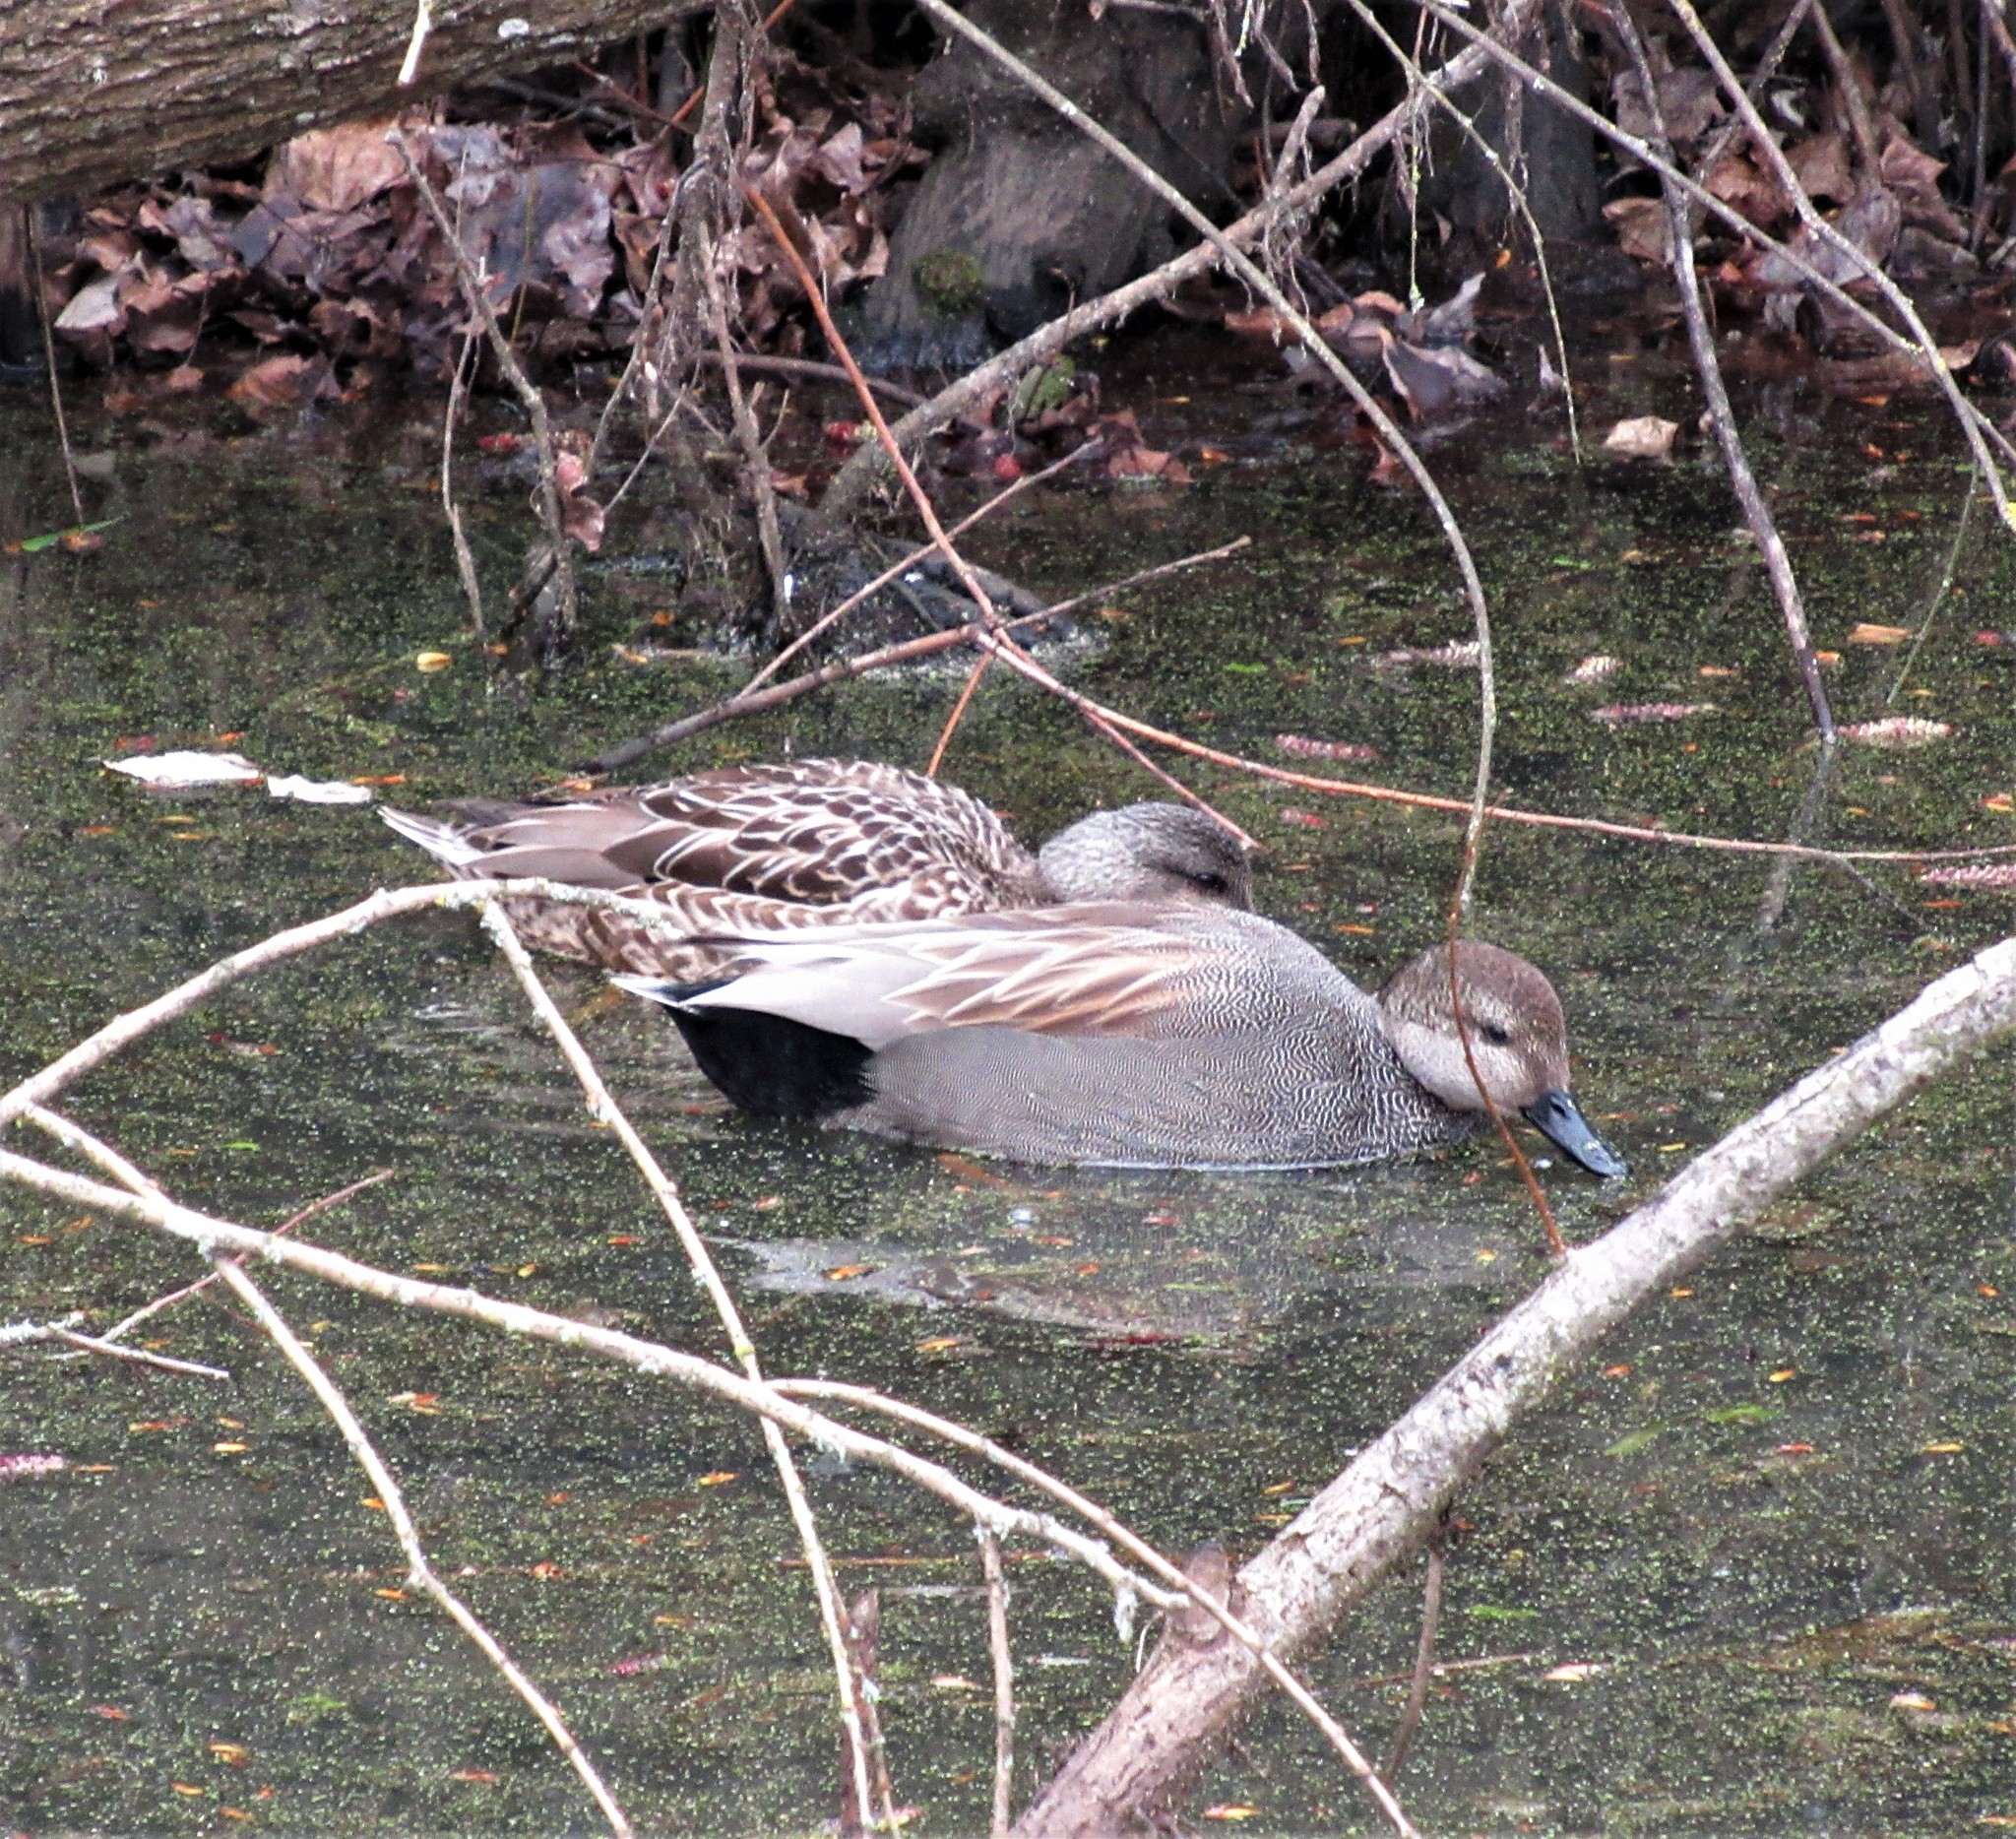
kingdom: Animalia
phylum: Chordata
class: Aves
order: Anseriformes
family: Anatidae
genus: Mareca
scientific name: Mareca strepera
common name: Gadwall
